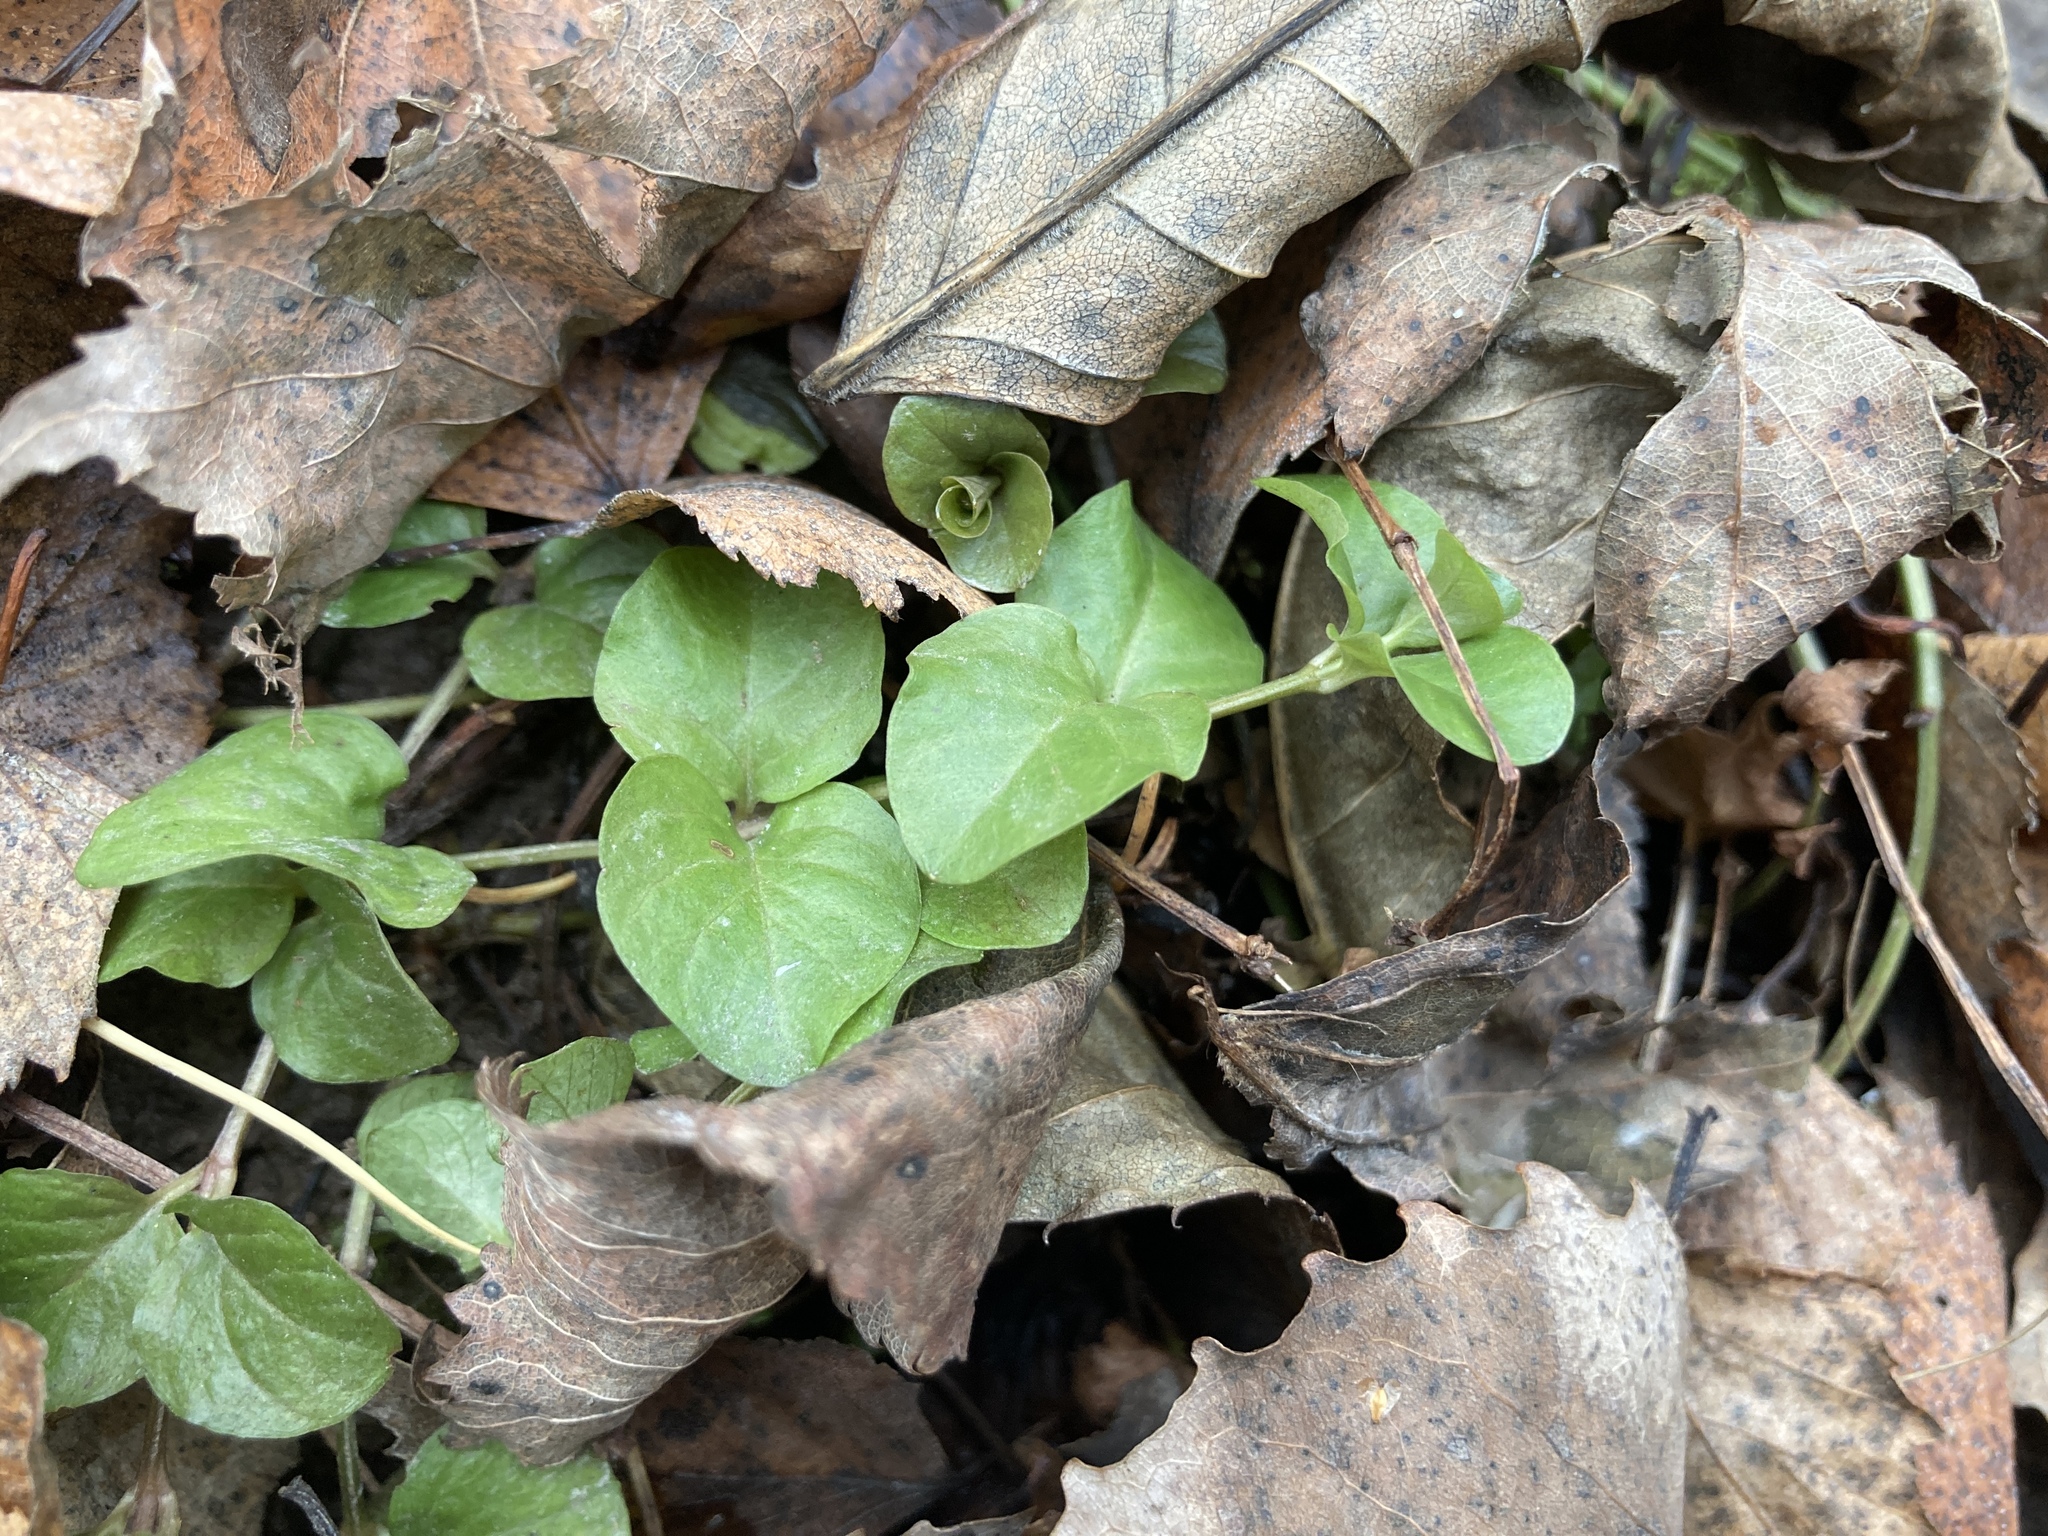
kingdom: Plantae
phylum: Tracheophyta
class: Magnoliopsida
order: Ericales
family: Primulaceae
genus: Lysimachia
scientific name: Lysimachia nummularia
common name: Moneywort
